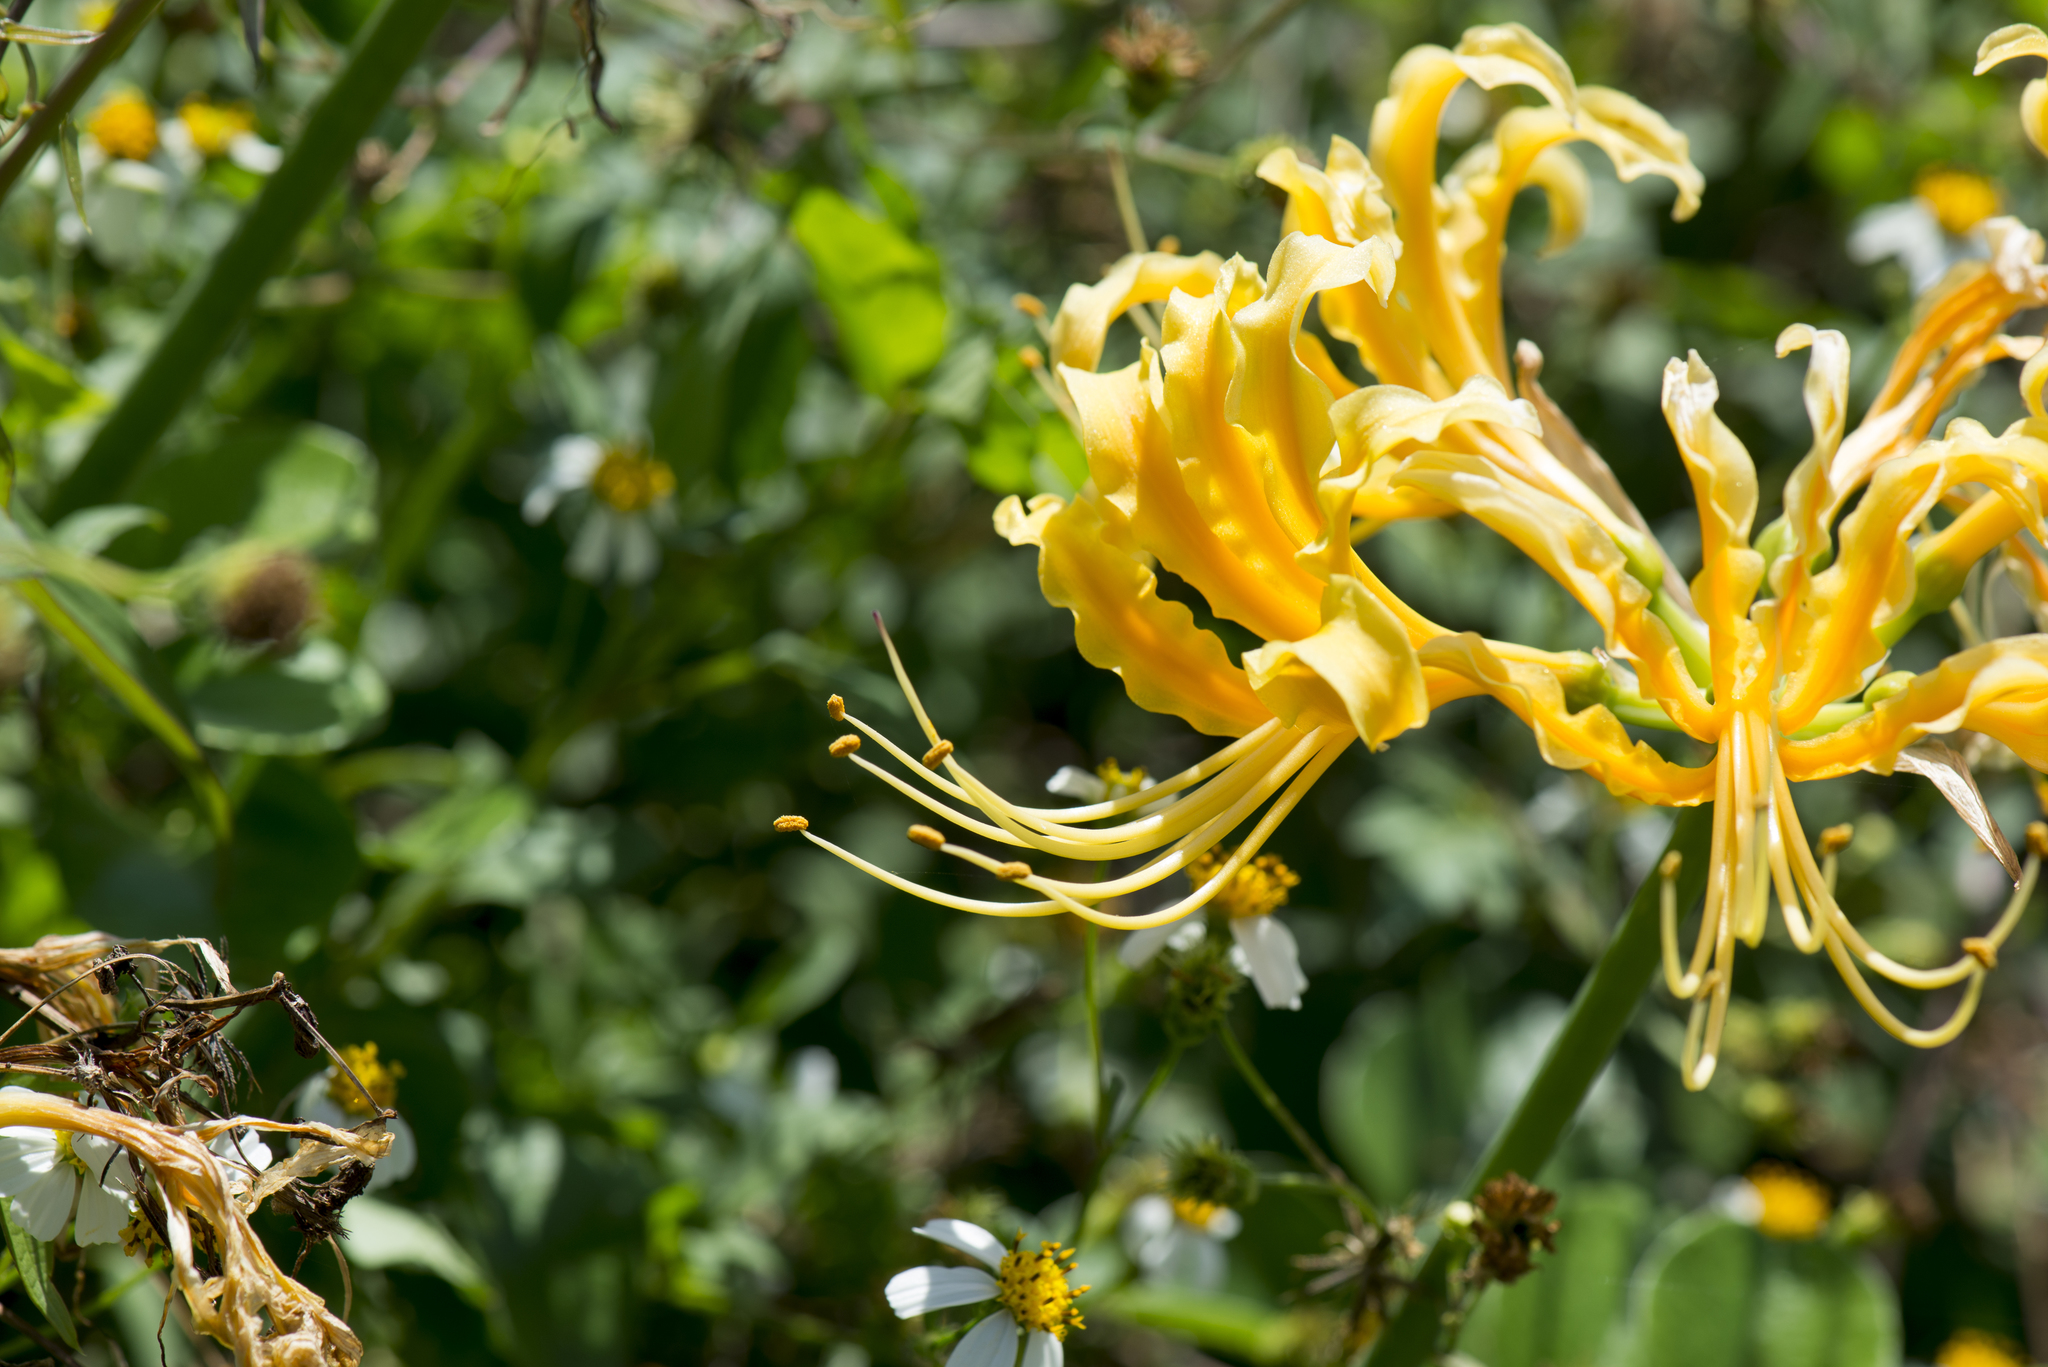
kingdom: Plantae
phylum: Tracheophyta
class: Liliopsida
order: Asparagales
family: Amaryllidaceae
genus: Lycoris
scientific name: Lycoris aurea
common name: Golden hurricane-lily
